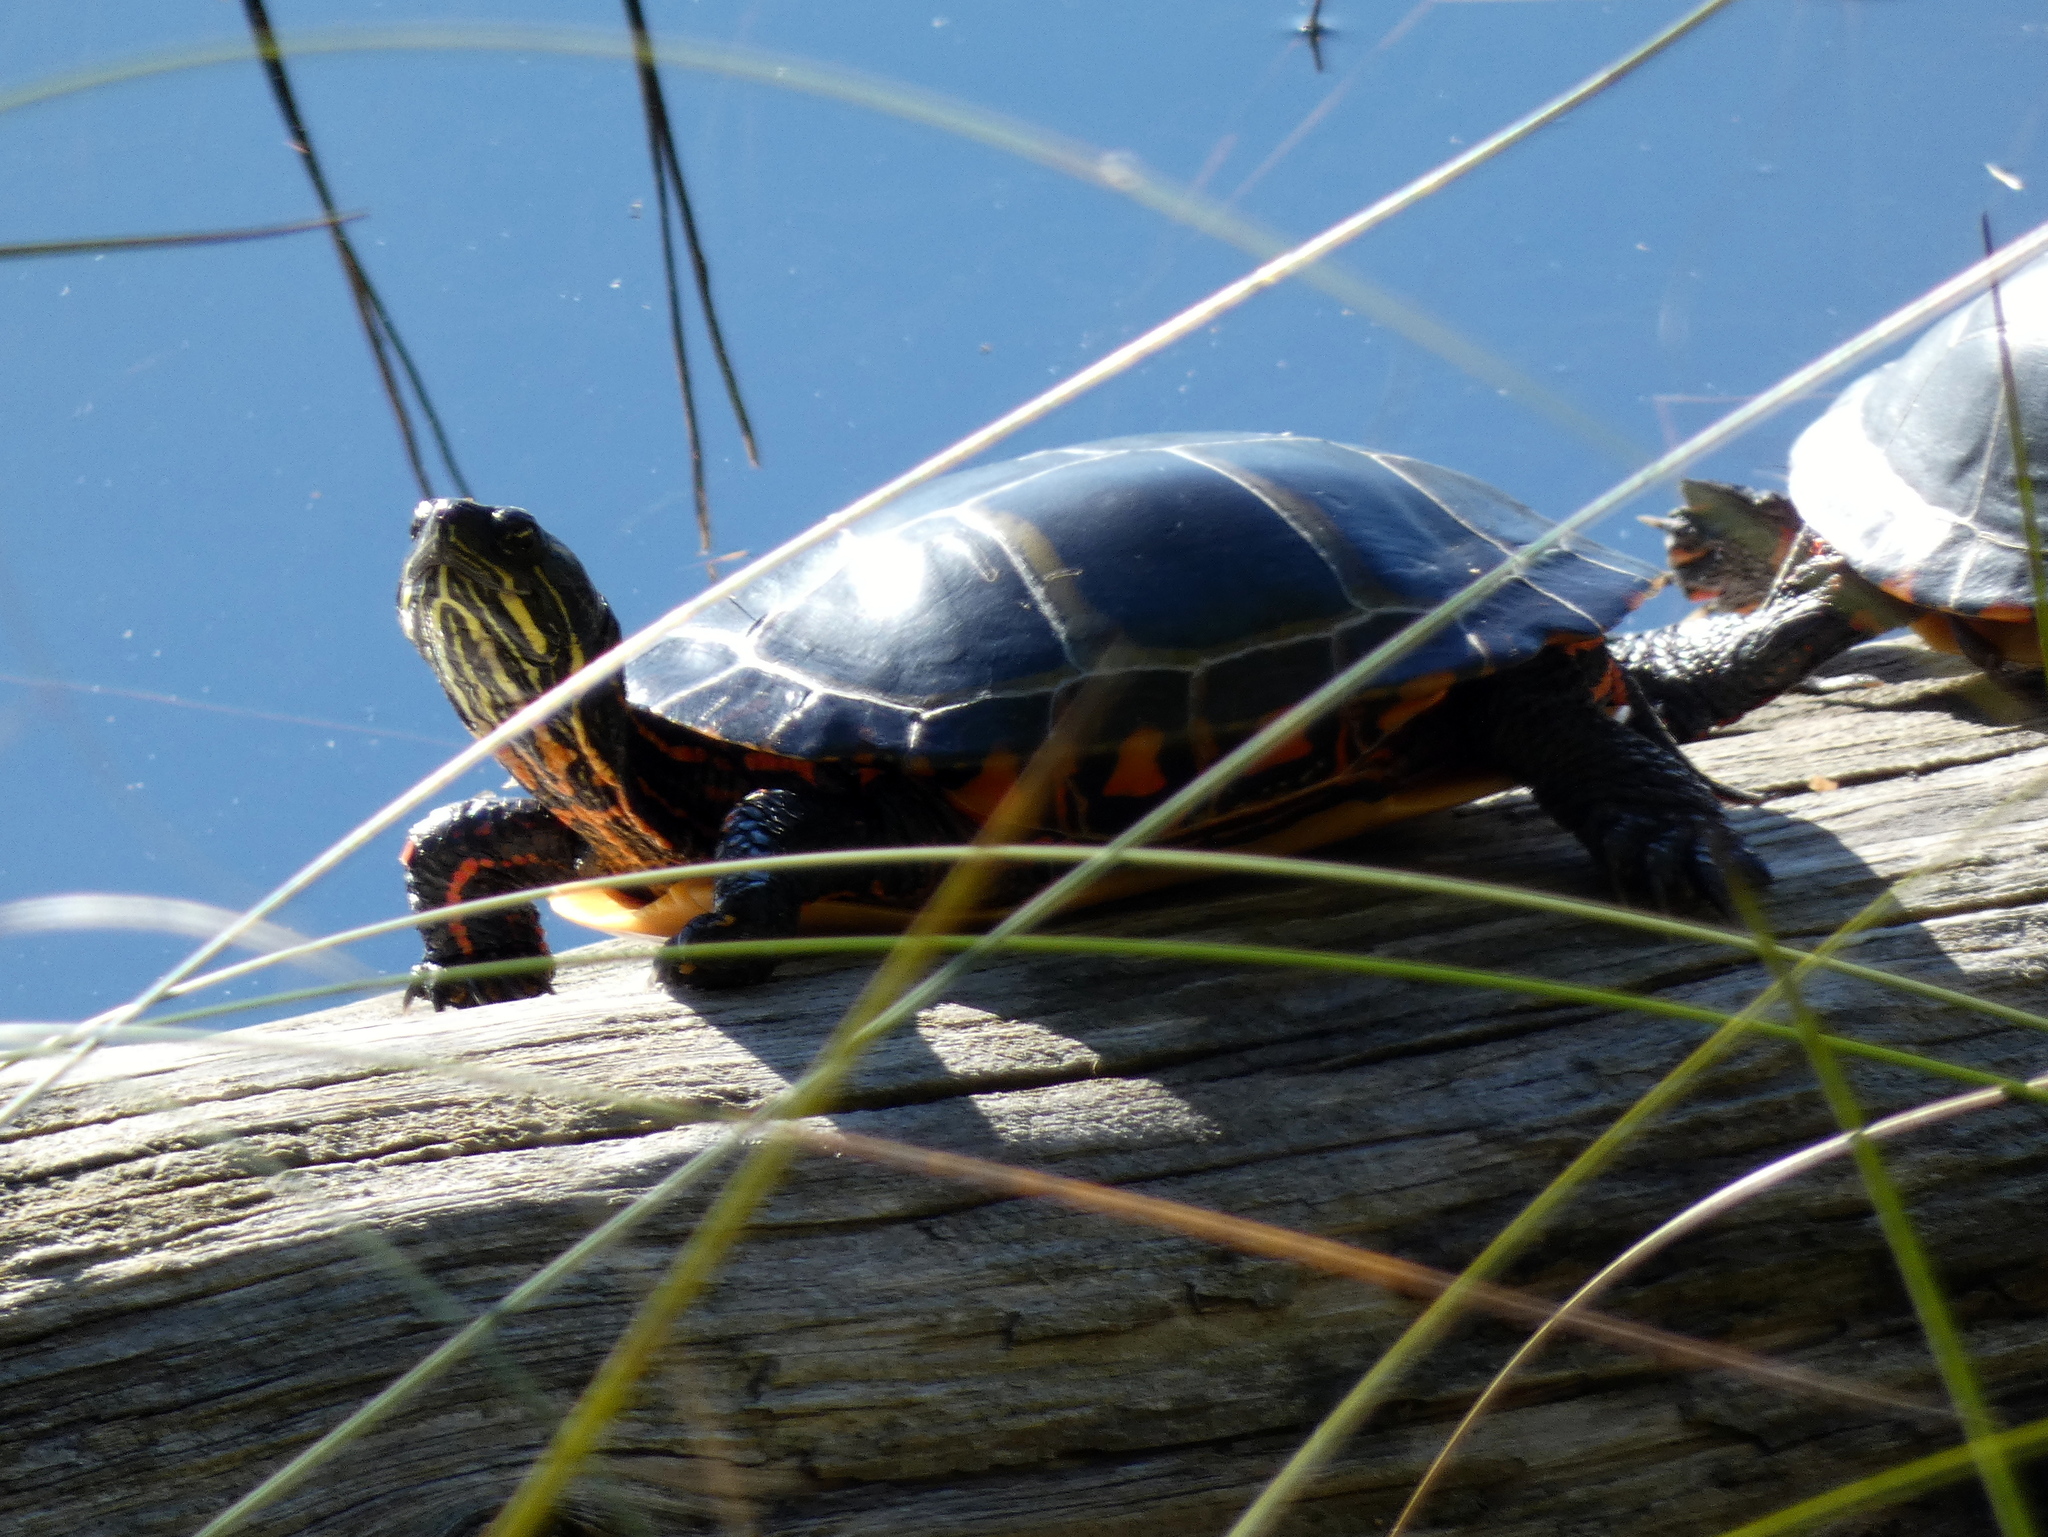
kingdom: Animalia
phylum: Chordata
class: Testudines
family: Emydidae
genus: Chrysemys
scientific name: Chrysemys picta
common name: Painted turtle
